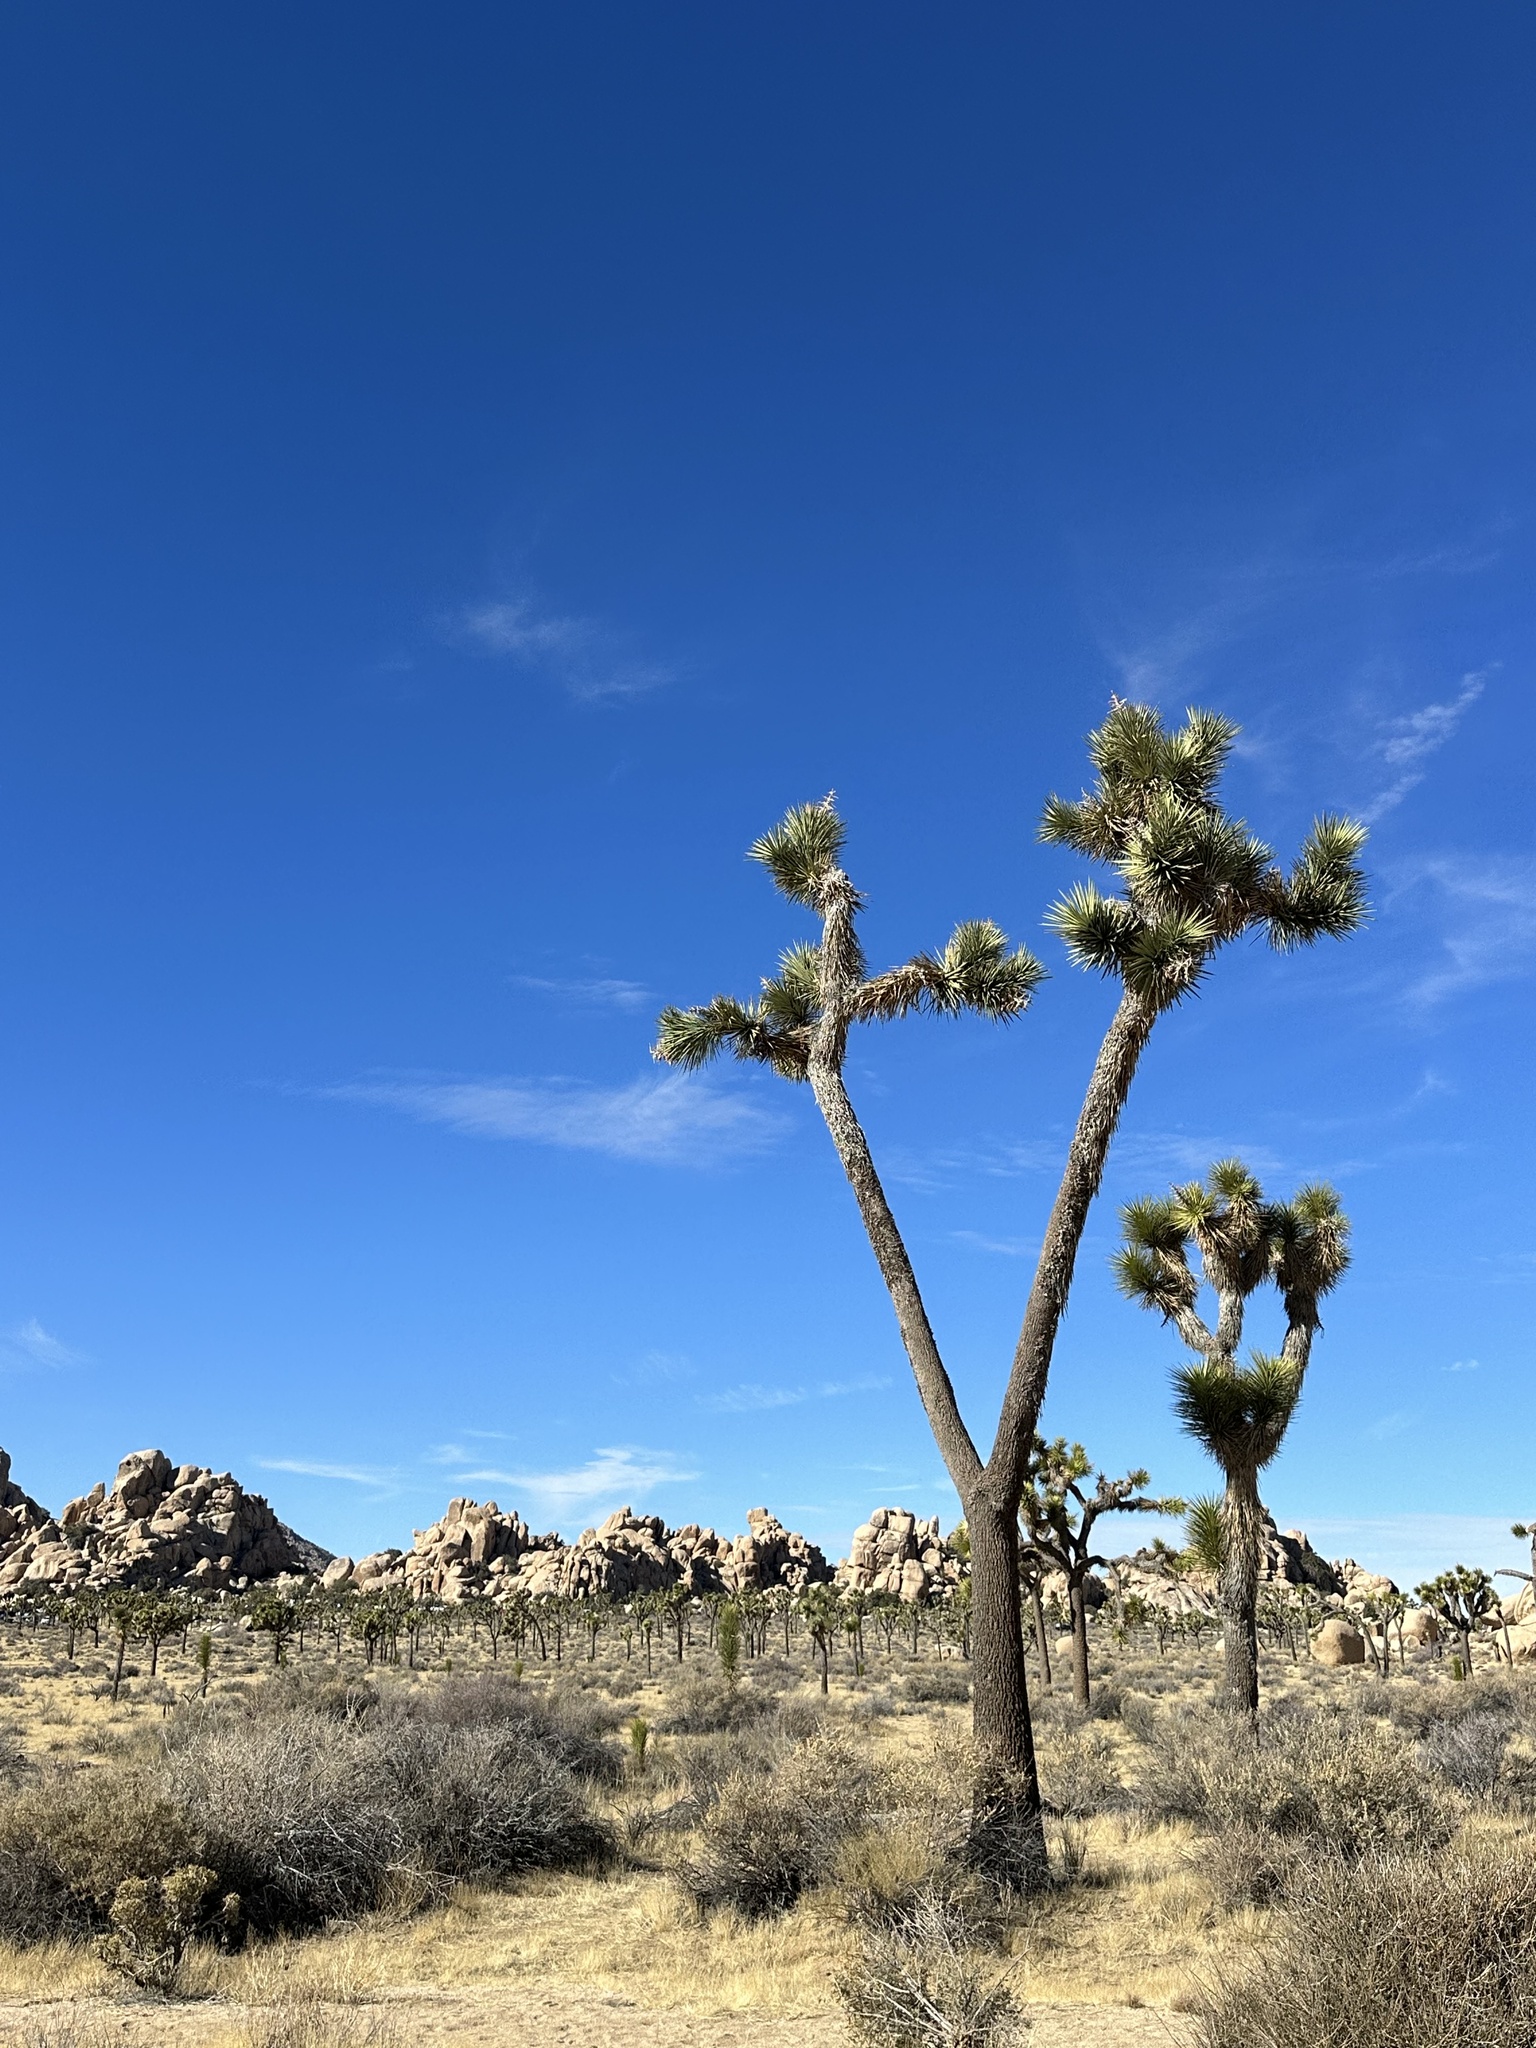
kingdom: Plantae
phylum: Tracheophyta
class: Liliopsida
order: Asparagales
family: Asparagaceae
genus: Yucca
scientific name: Yucca brevifolia
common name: Joshua tree
